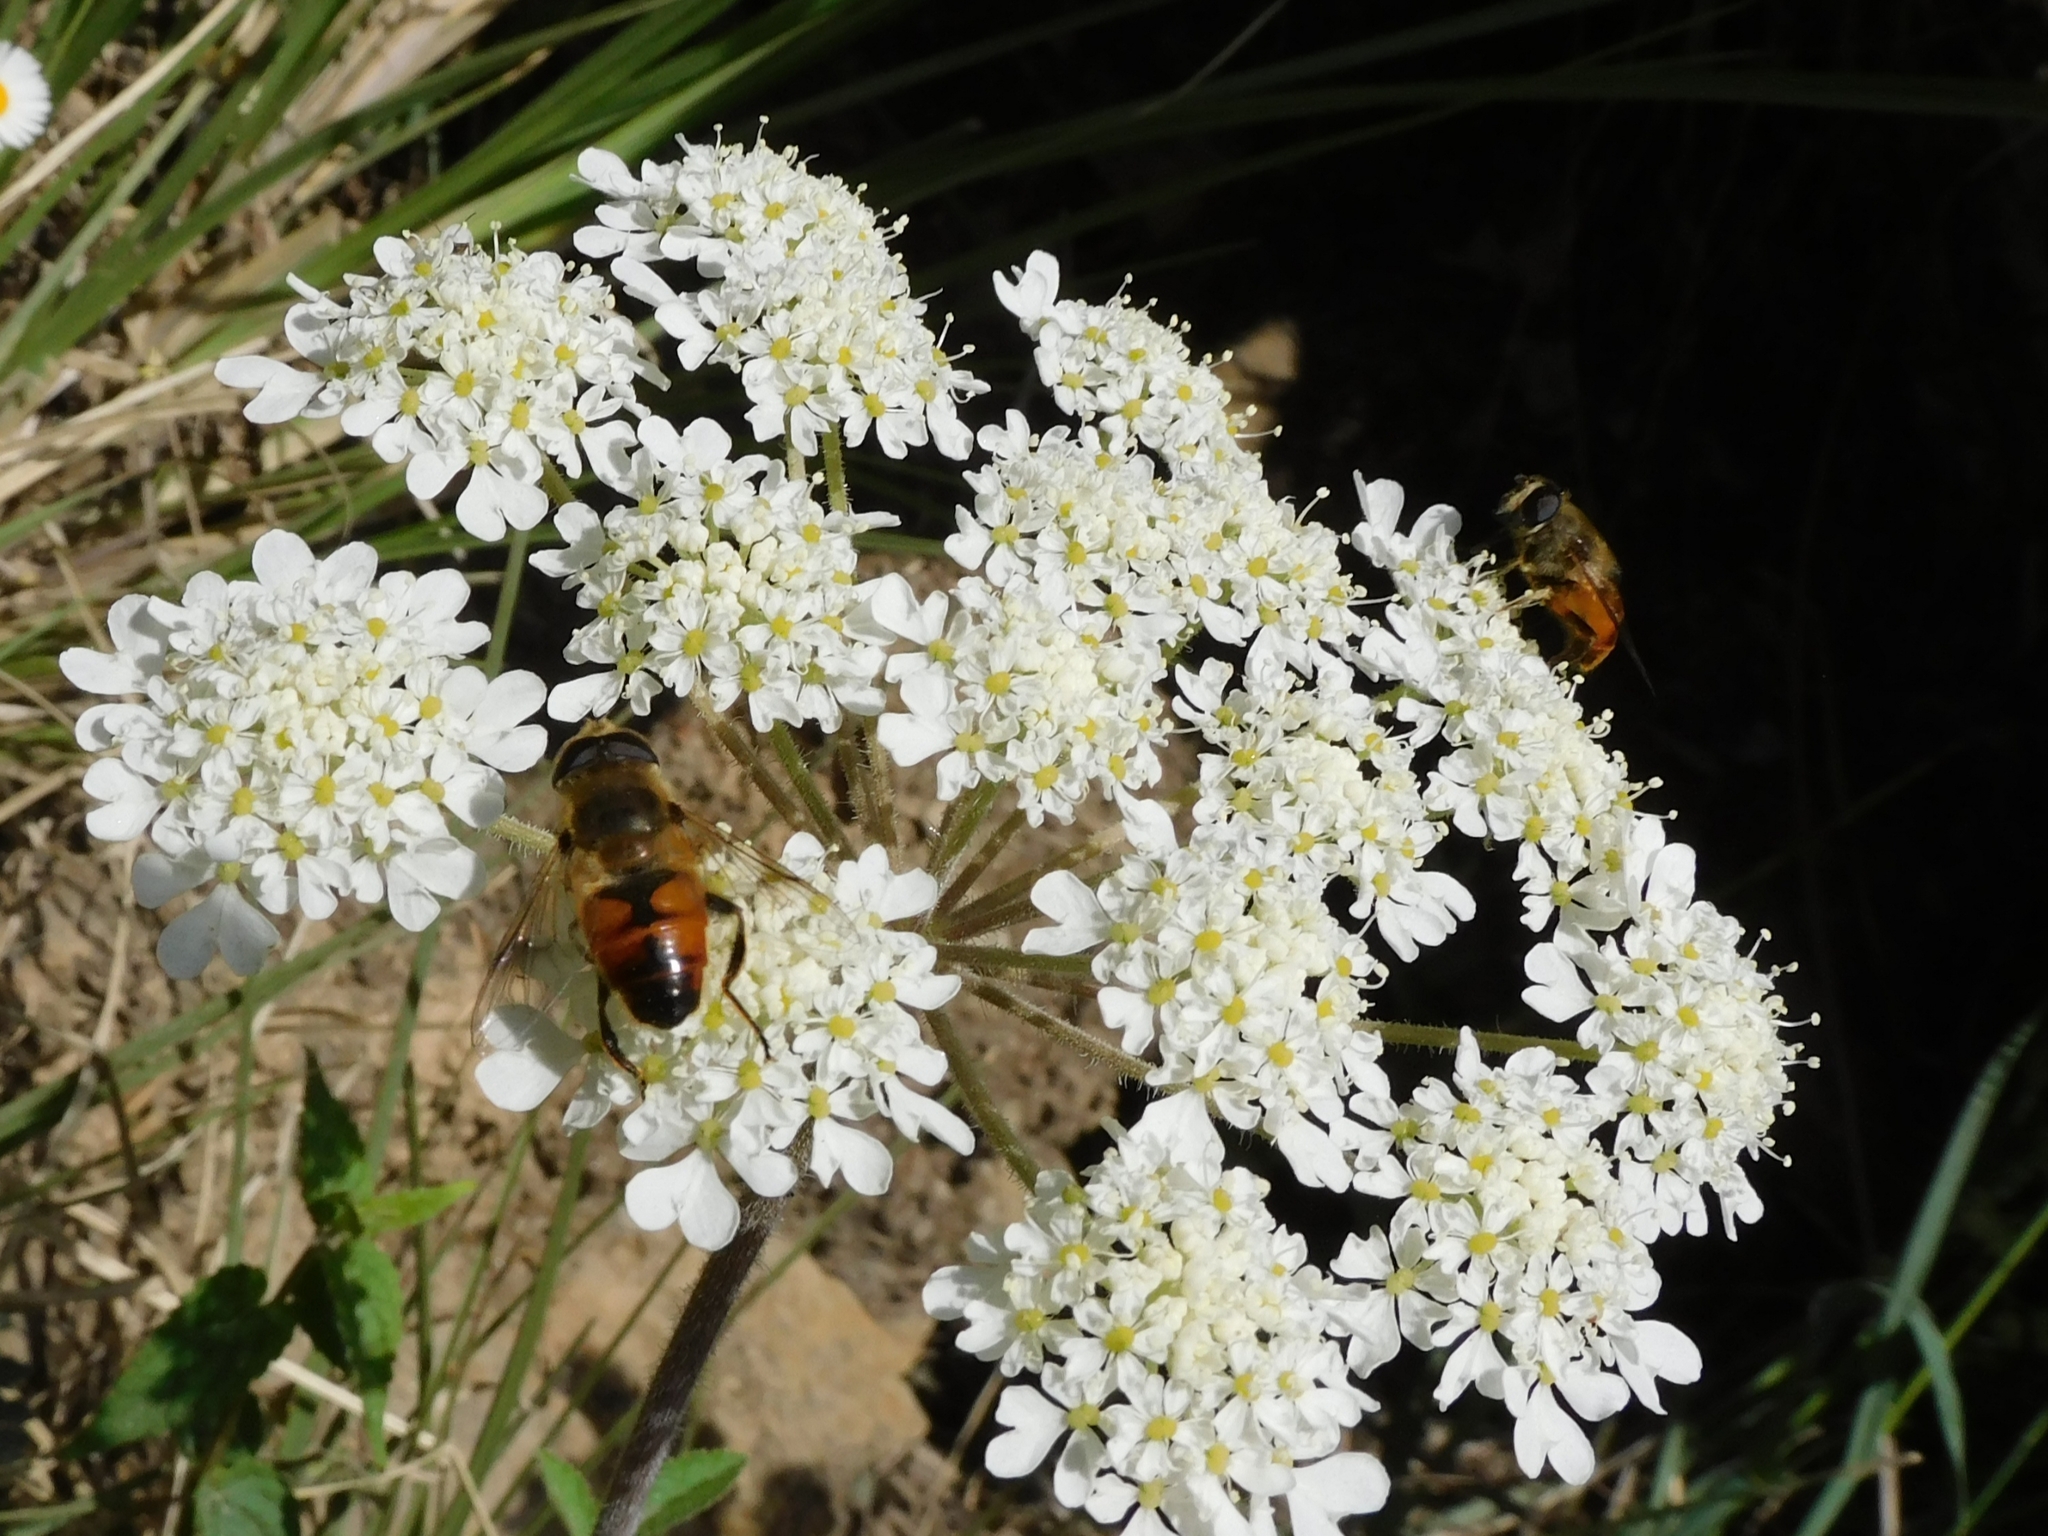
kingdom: Animalia
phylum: Arthropoda
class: Insecta
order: Diptera
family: Syrphidae
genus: Eristalis
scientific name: Eristalis tenax
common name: Drone fly
